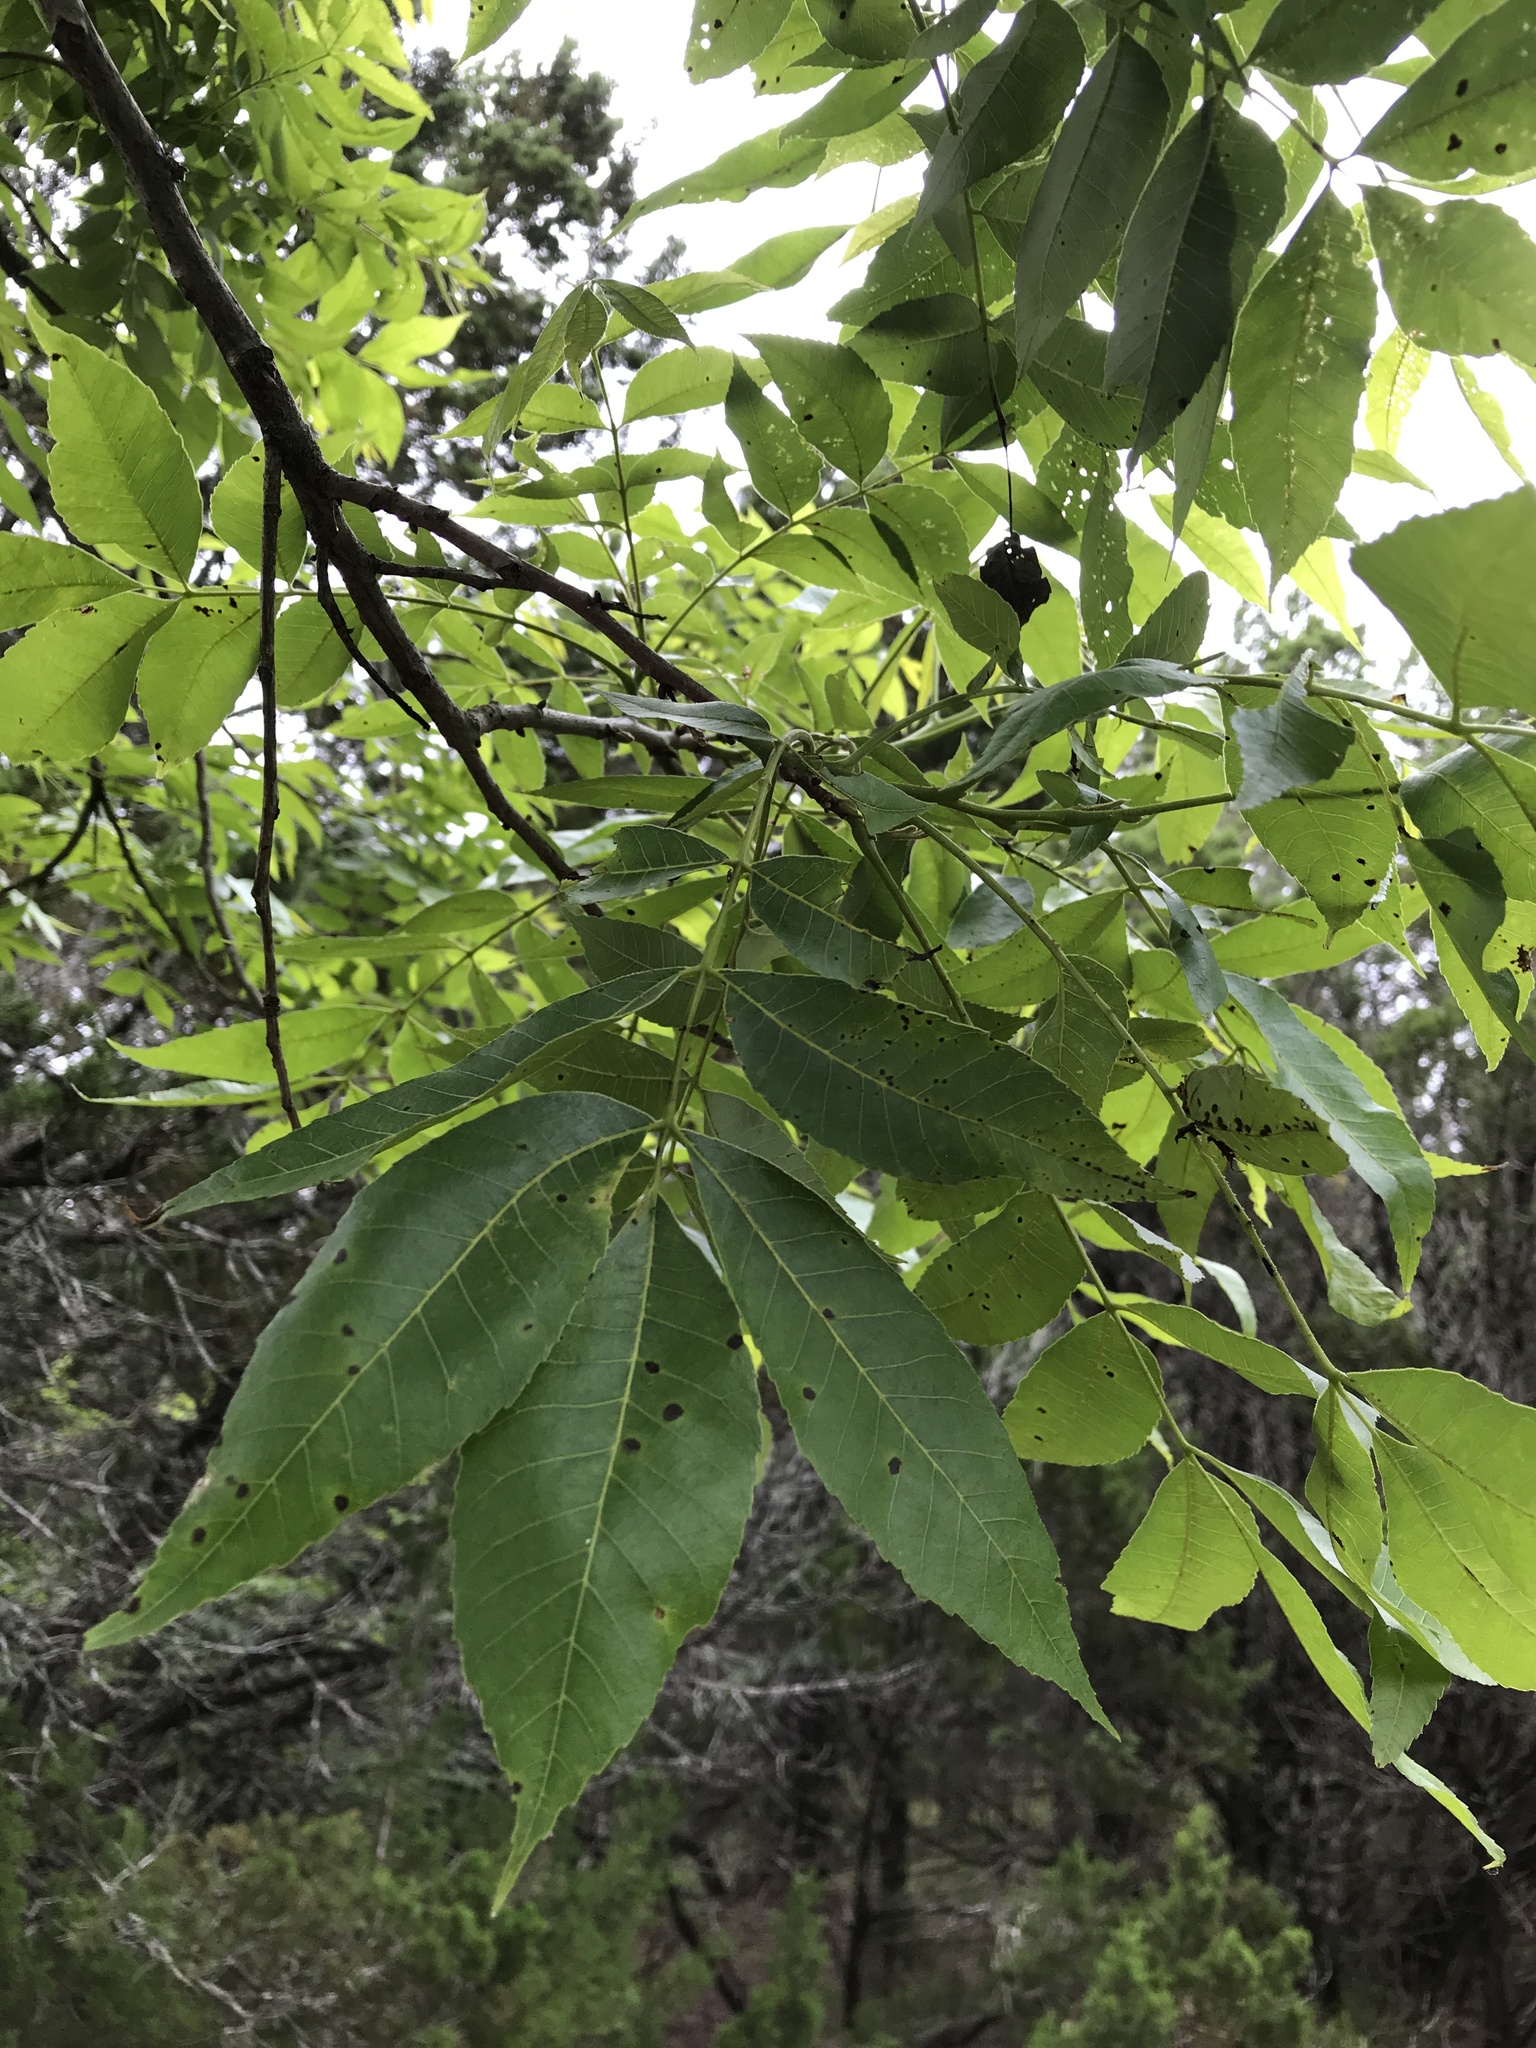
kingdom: Plantae
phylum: Tracheophyta
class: Magnoliopsida
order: Fagales
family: Juglandaceae
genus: Carya
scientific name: Carya illinoinensis
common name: Pecan
